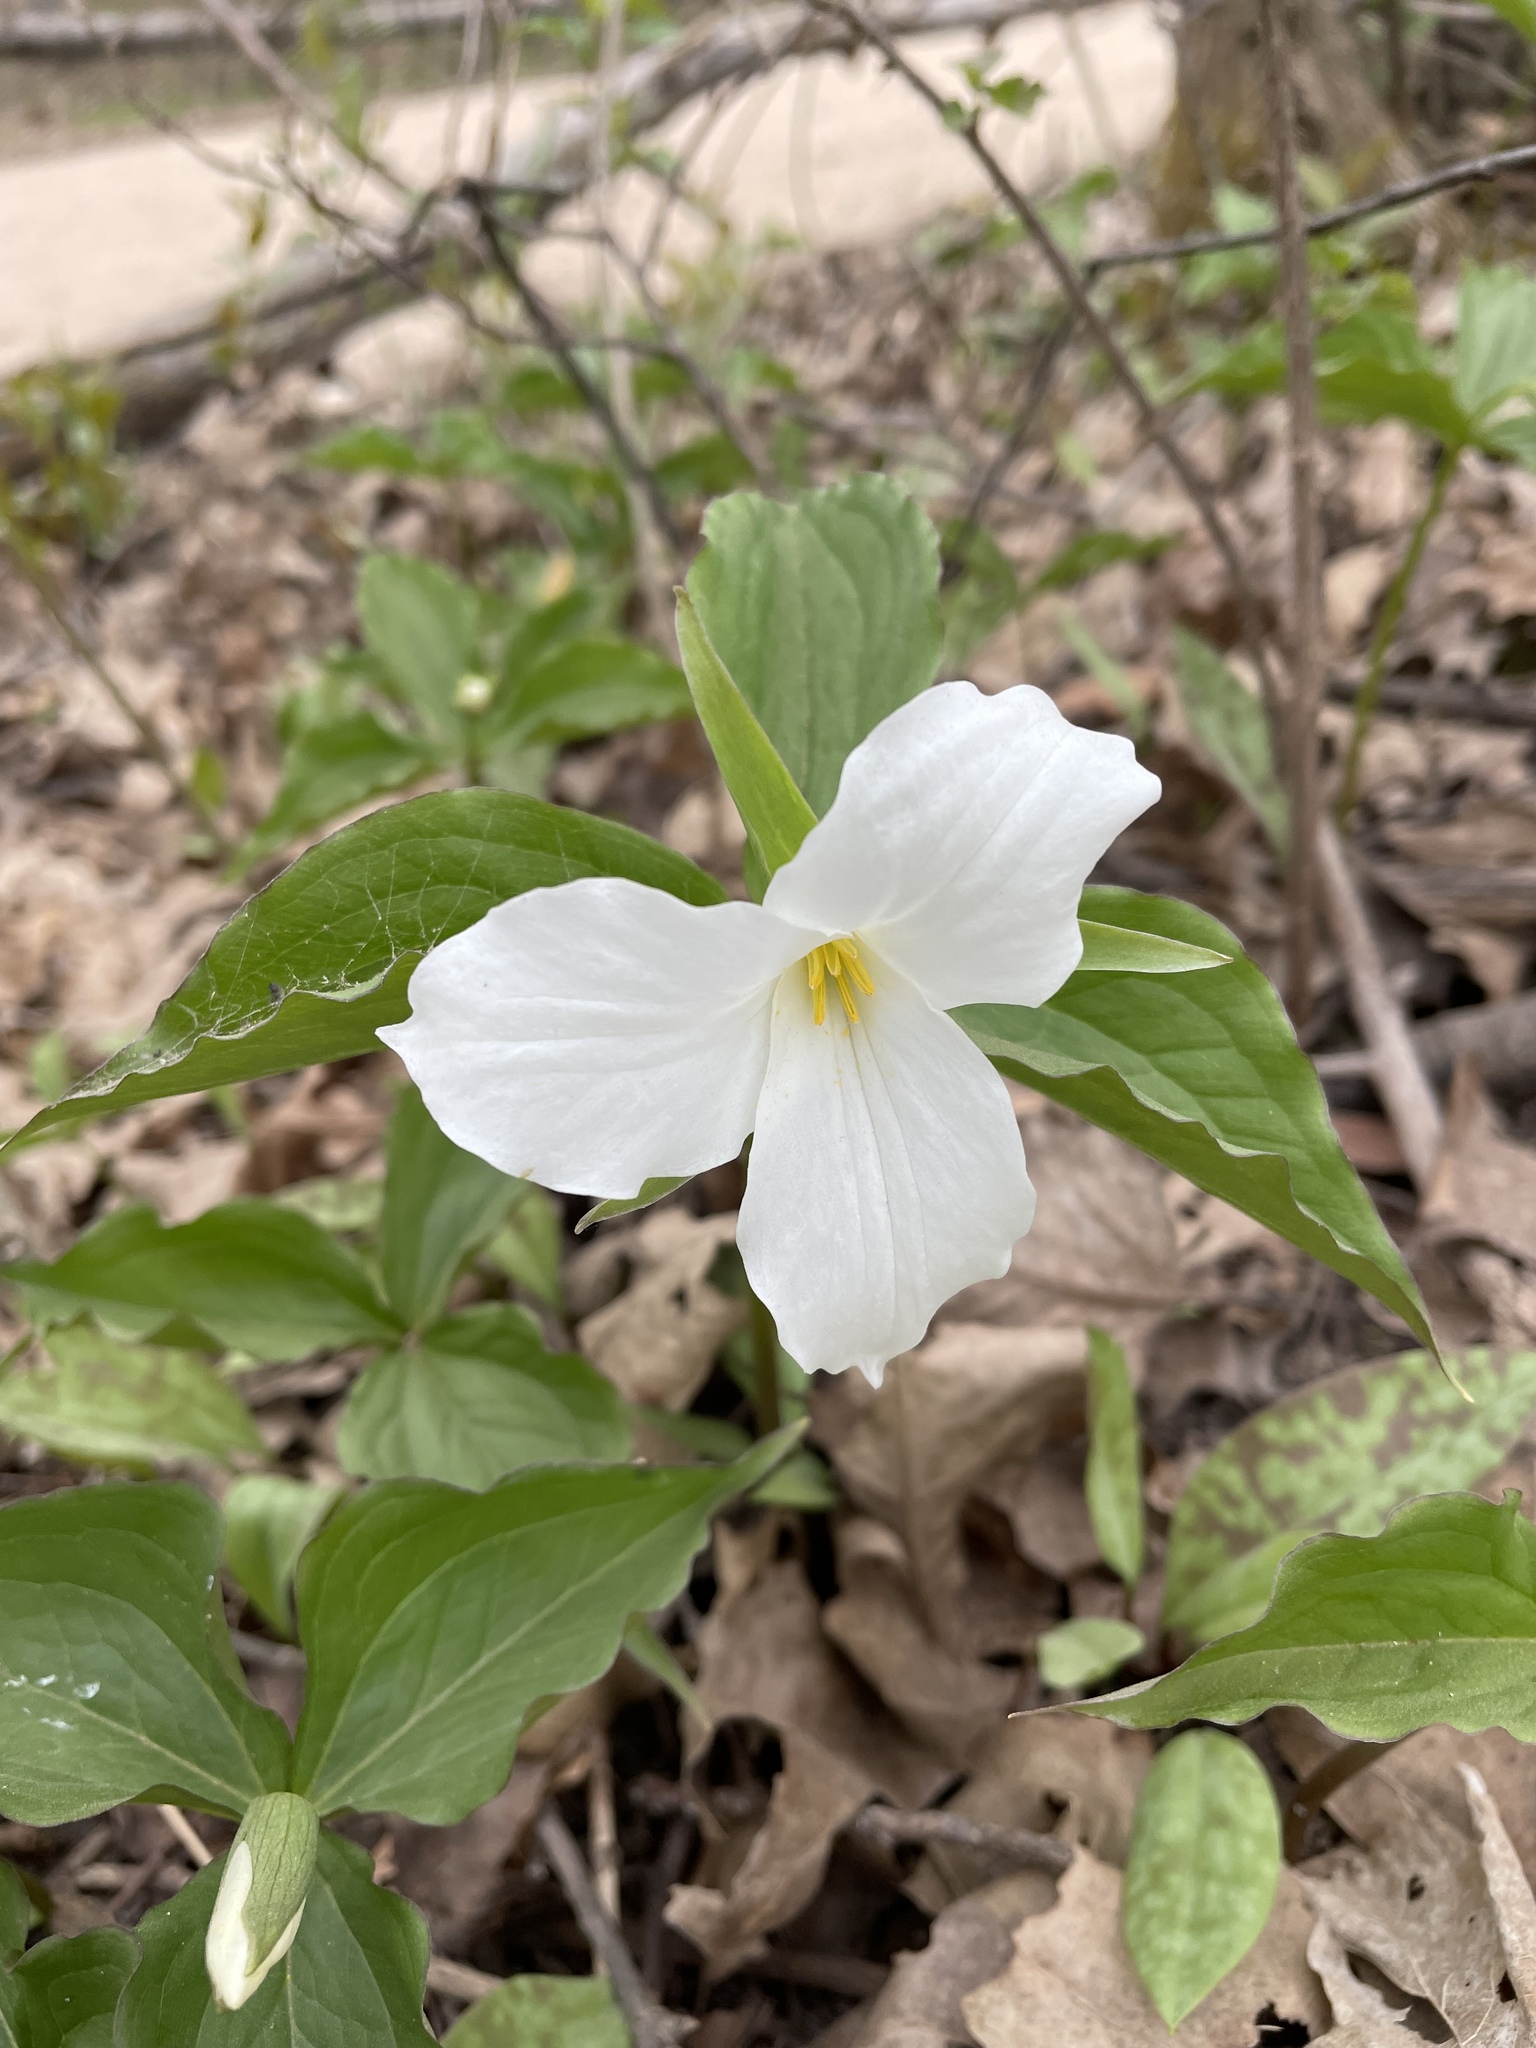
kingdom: Plantae
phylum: Tracheophyta
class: Liliopsida
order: Liliales
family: Melanthiaceae
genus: Trillium
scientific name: Trillium grandiflorum
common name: Great white trillium
